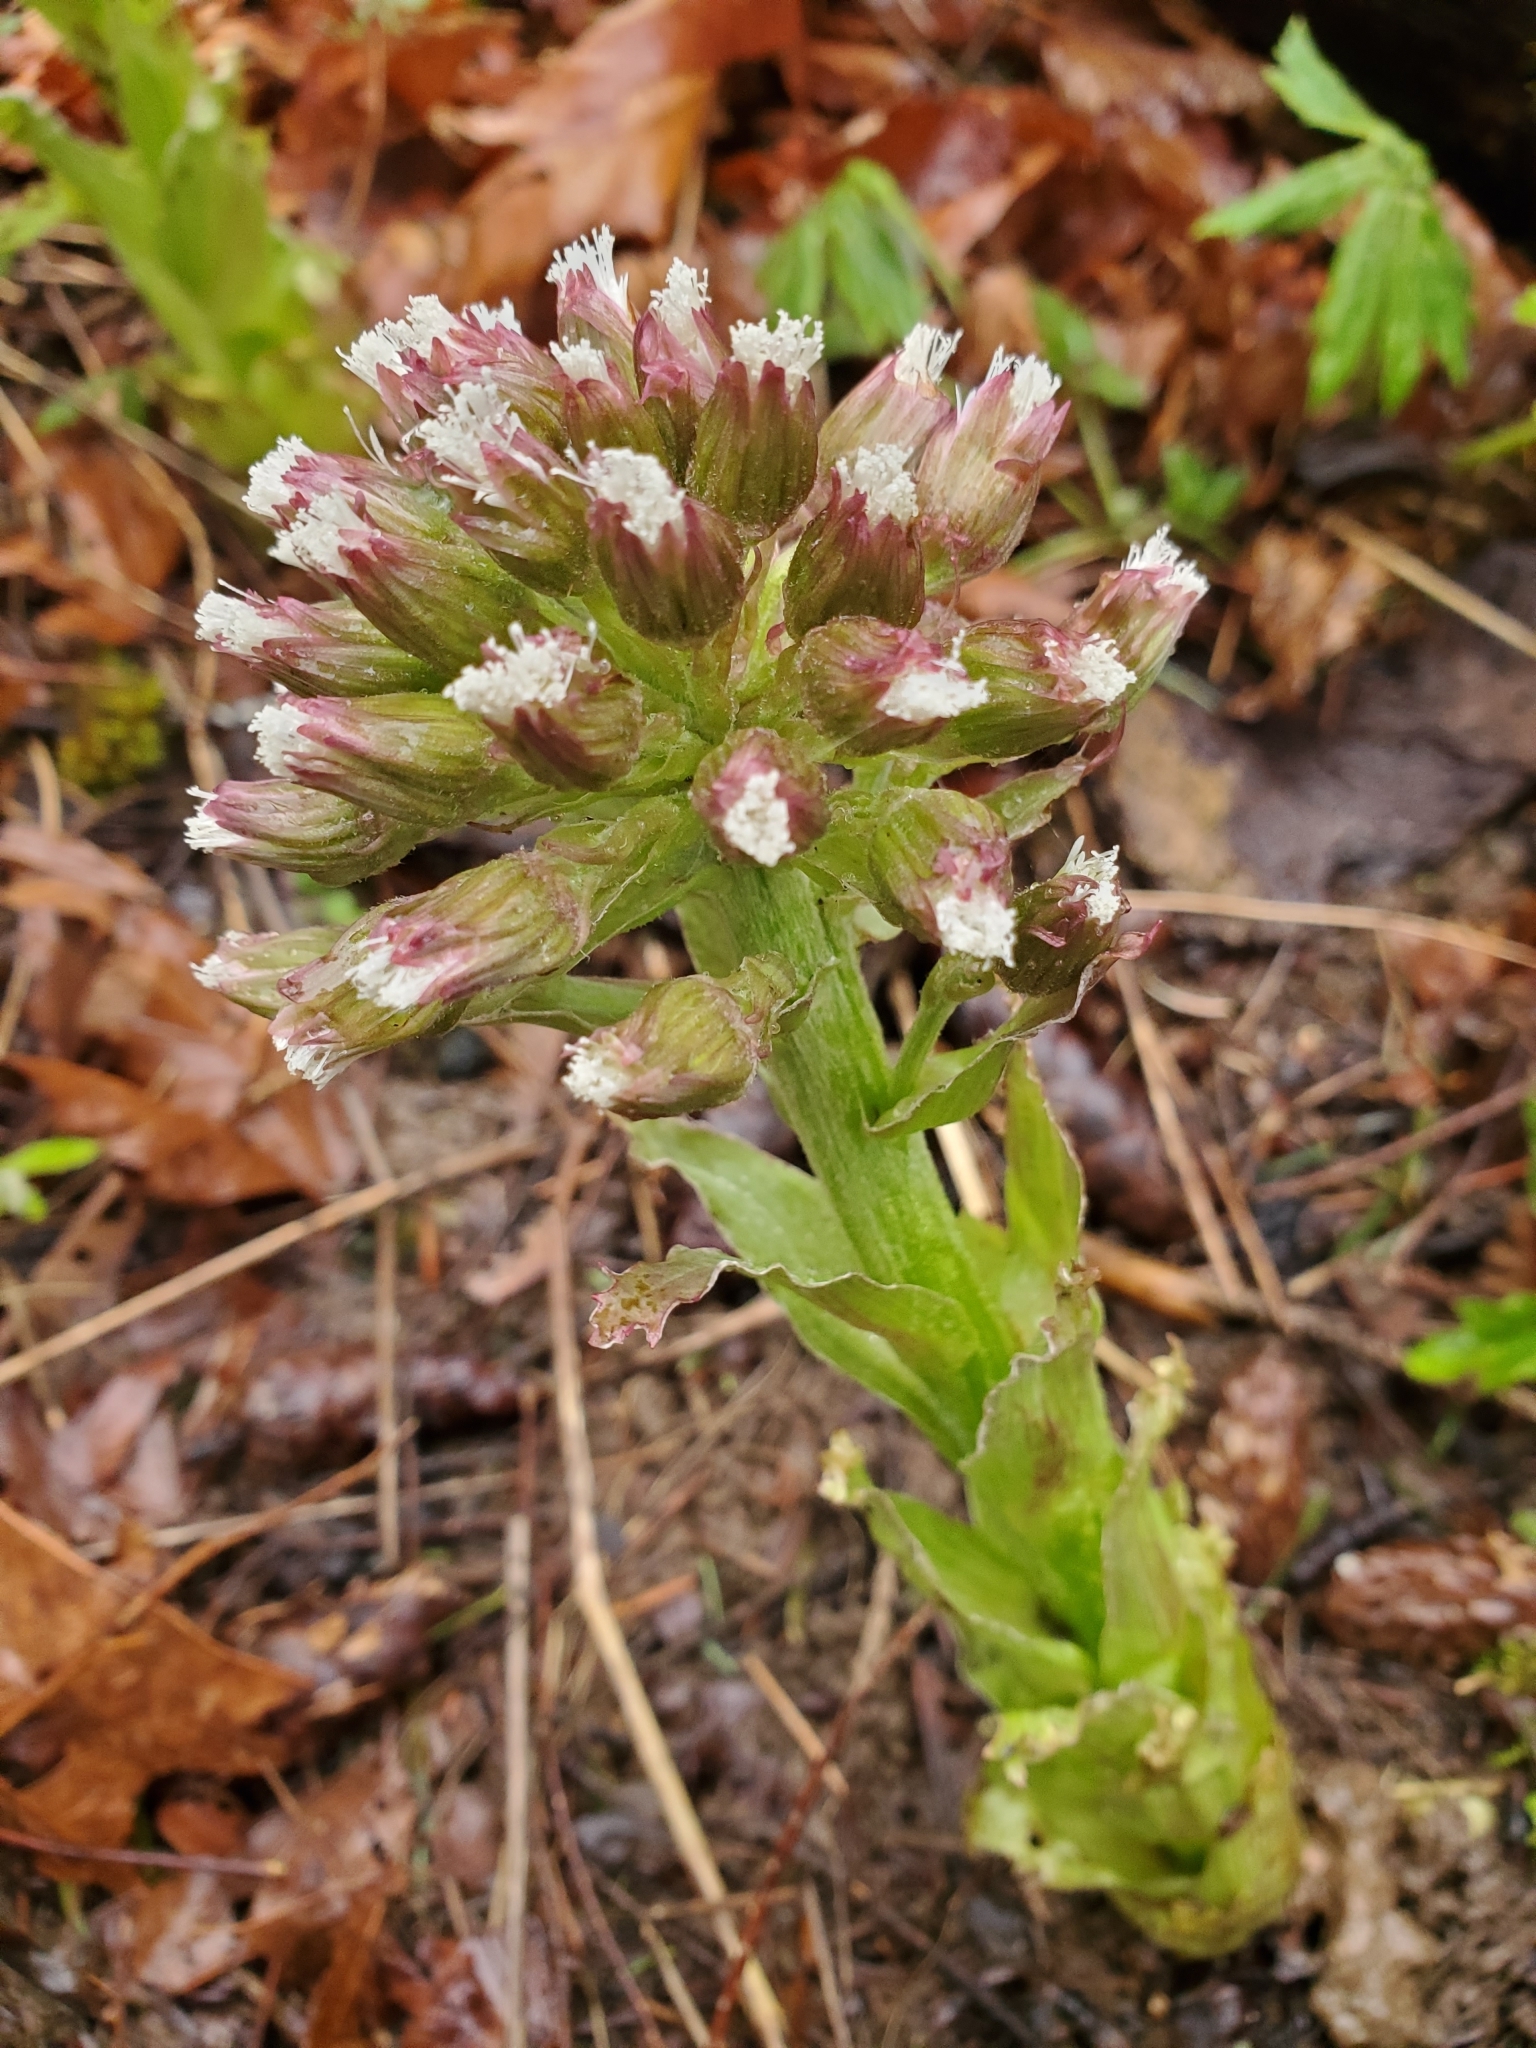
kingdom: Plantae
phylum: Tracheophyta
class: Magnoliopsida
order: Asterales
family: Asteraceae
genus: Petasites
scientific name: Petasites frigidus
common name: Arctic butterbur
